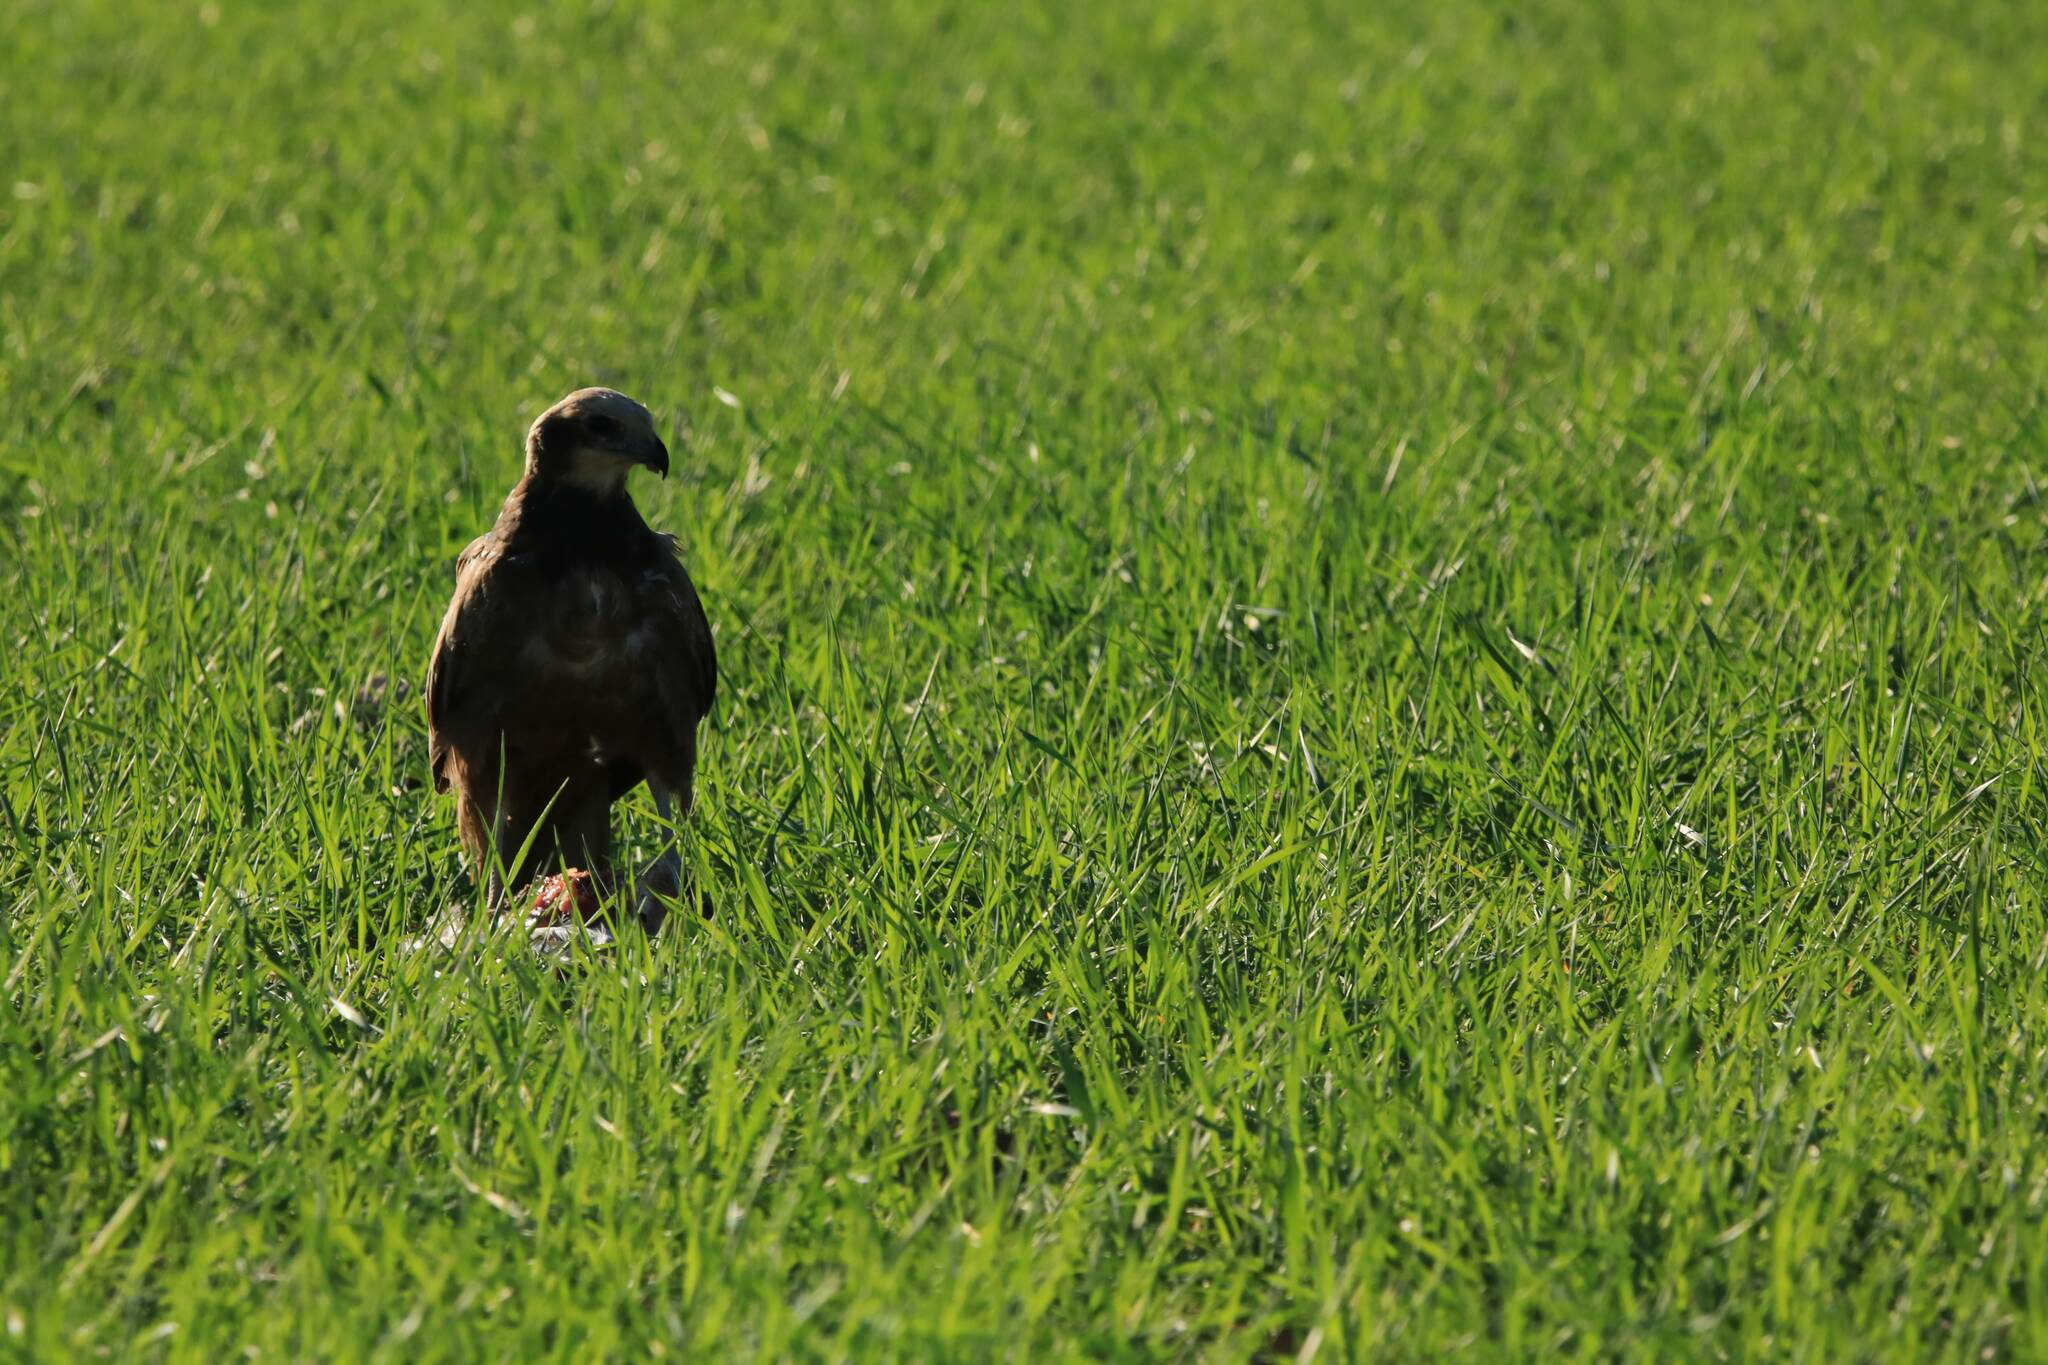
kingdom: Animalia
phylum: Chordata
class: Aves
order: Accipitriformes
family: Accipitridae
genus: Circus
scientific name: Circus aeruginosus
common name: Western marsh harrier
